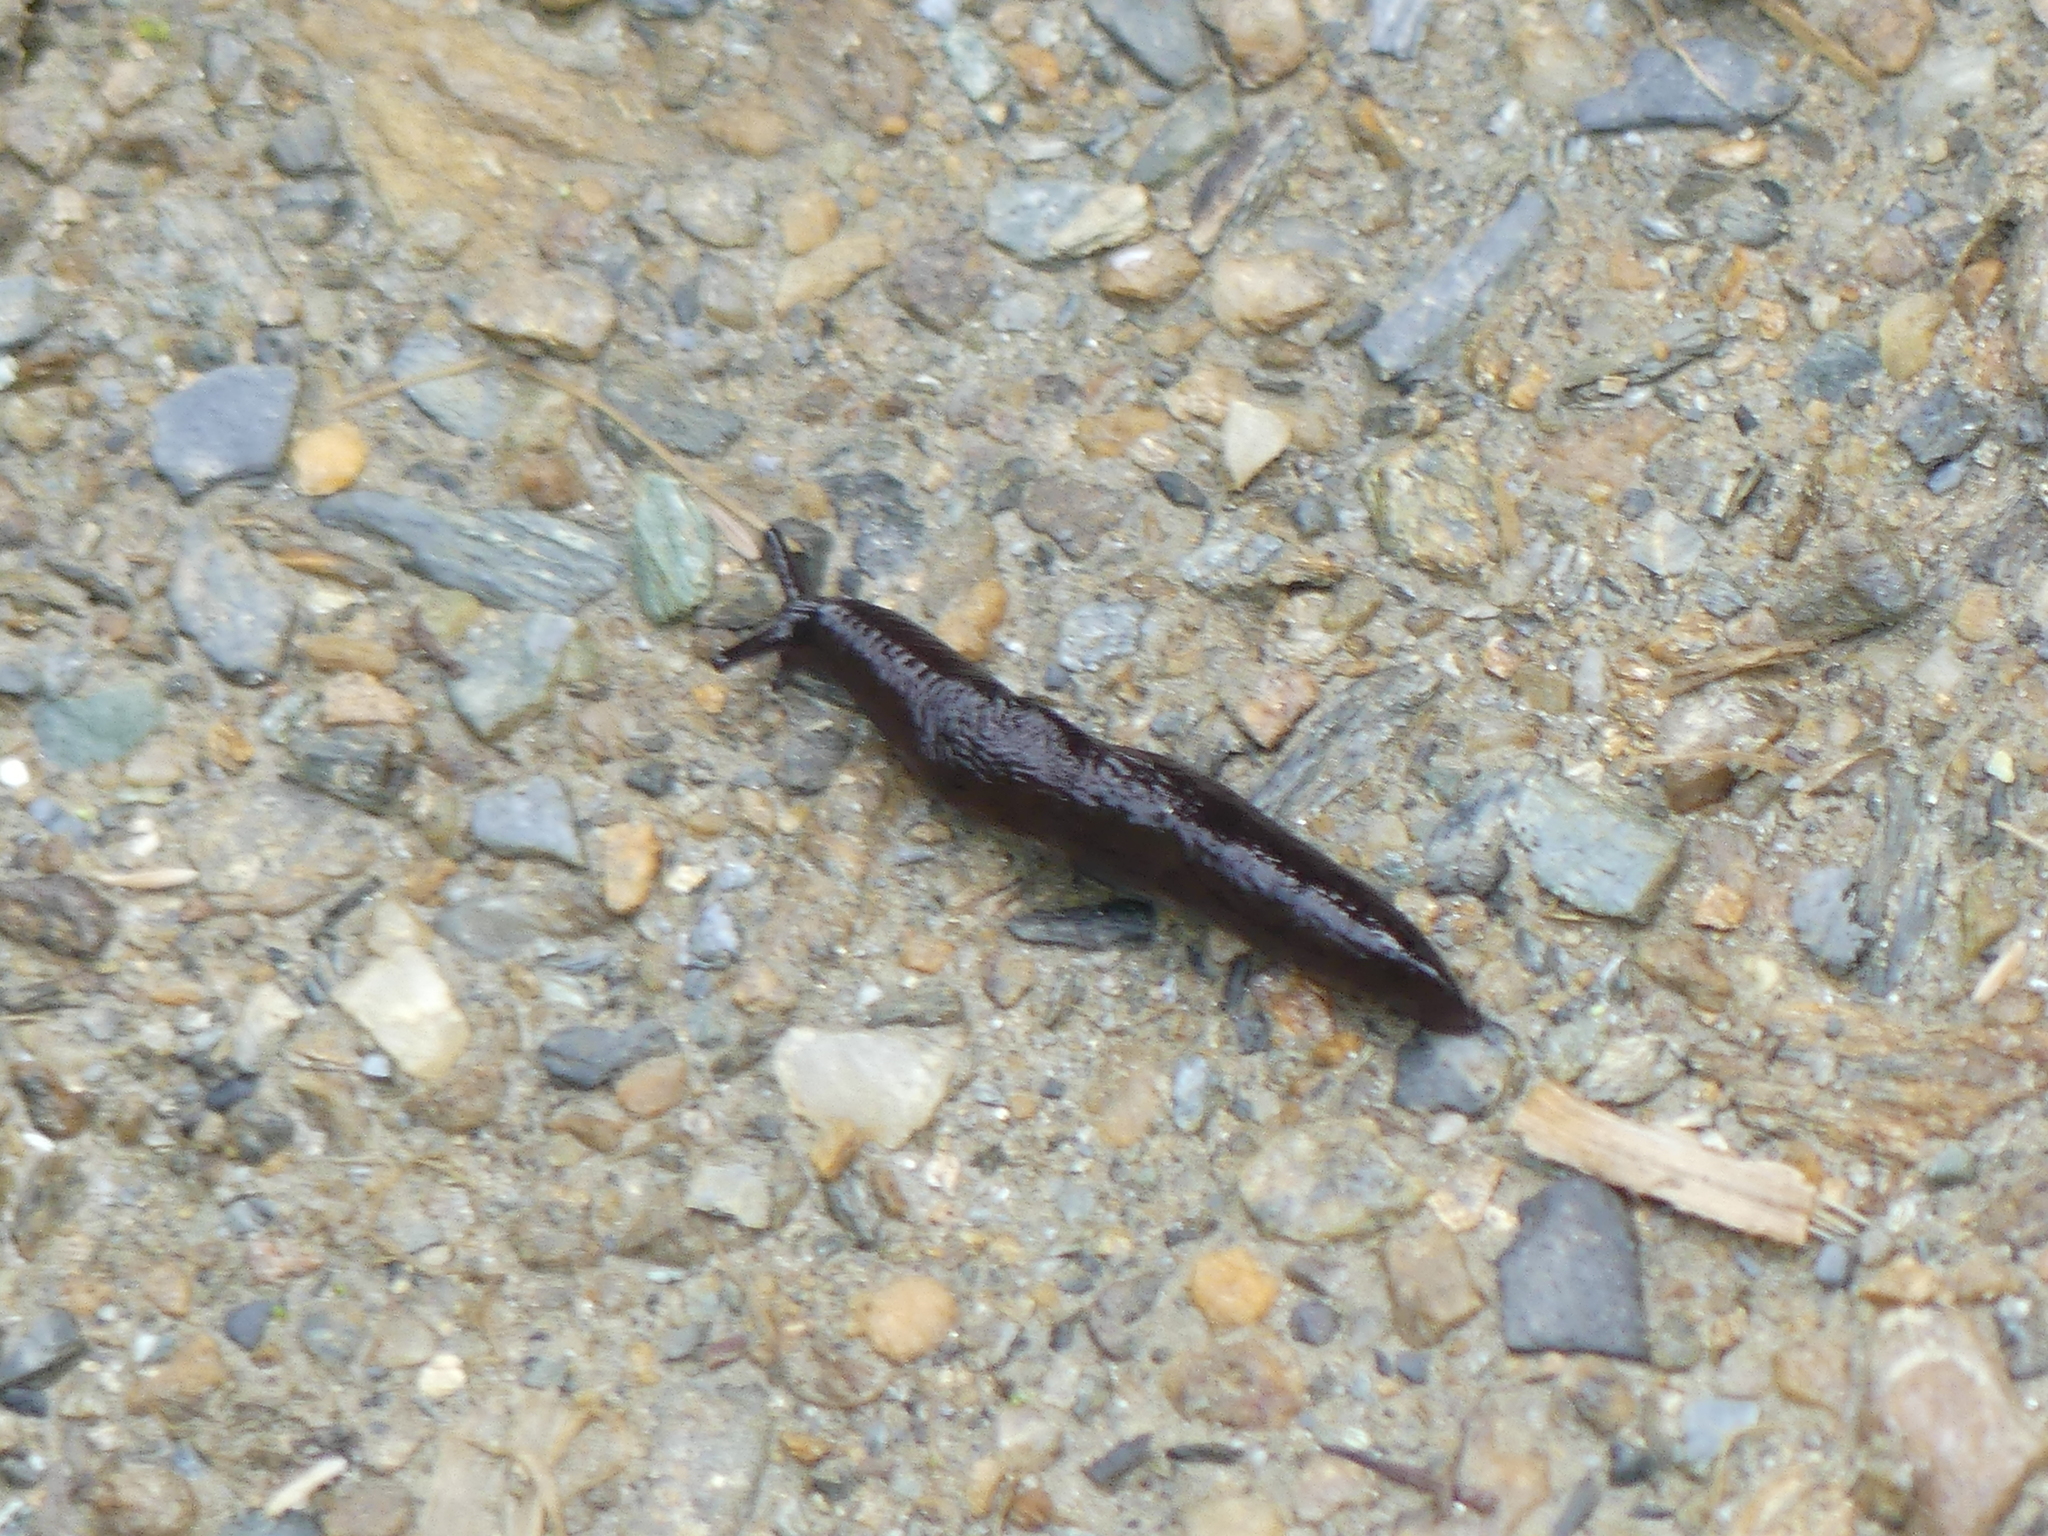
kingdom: Animalia
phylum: Mollusca
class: Gastropoda
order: Stylommatophora
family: Agriolimacidae
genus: Deroceras
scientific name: Deroceras laeve
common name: Marsh slug
